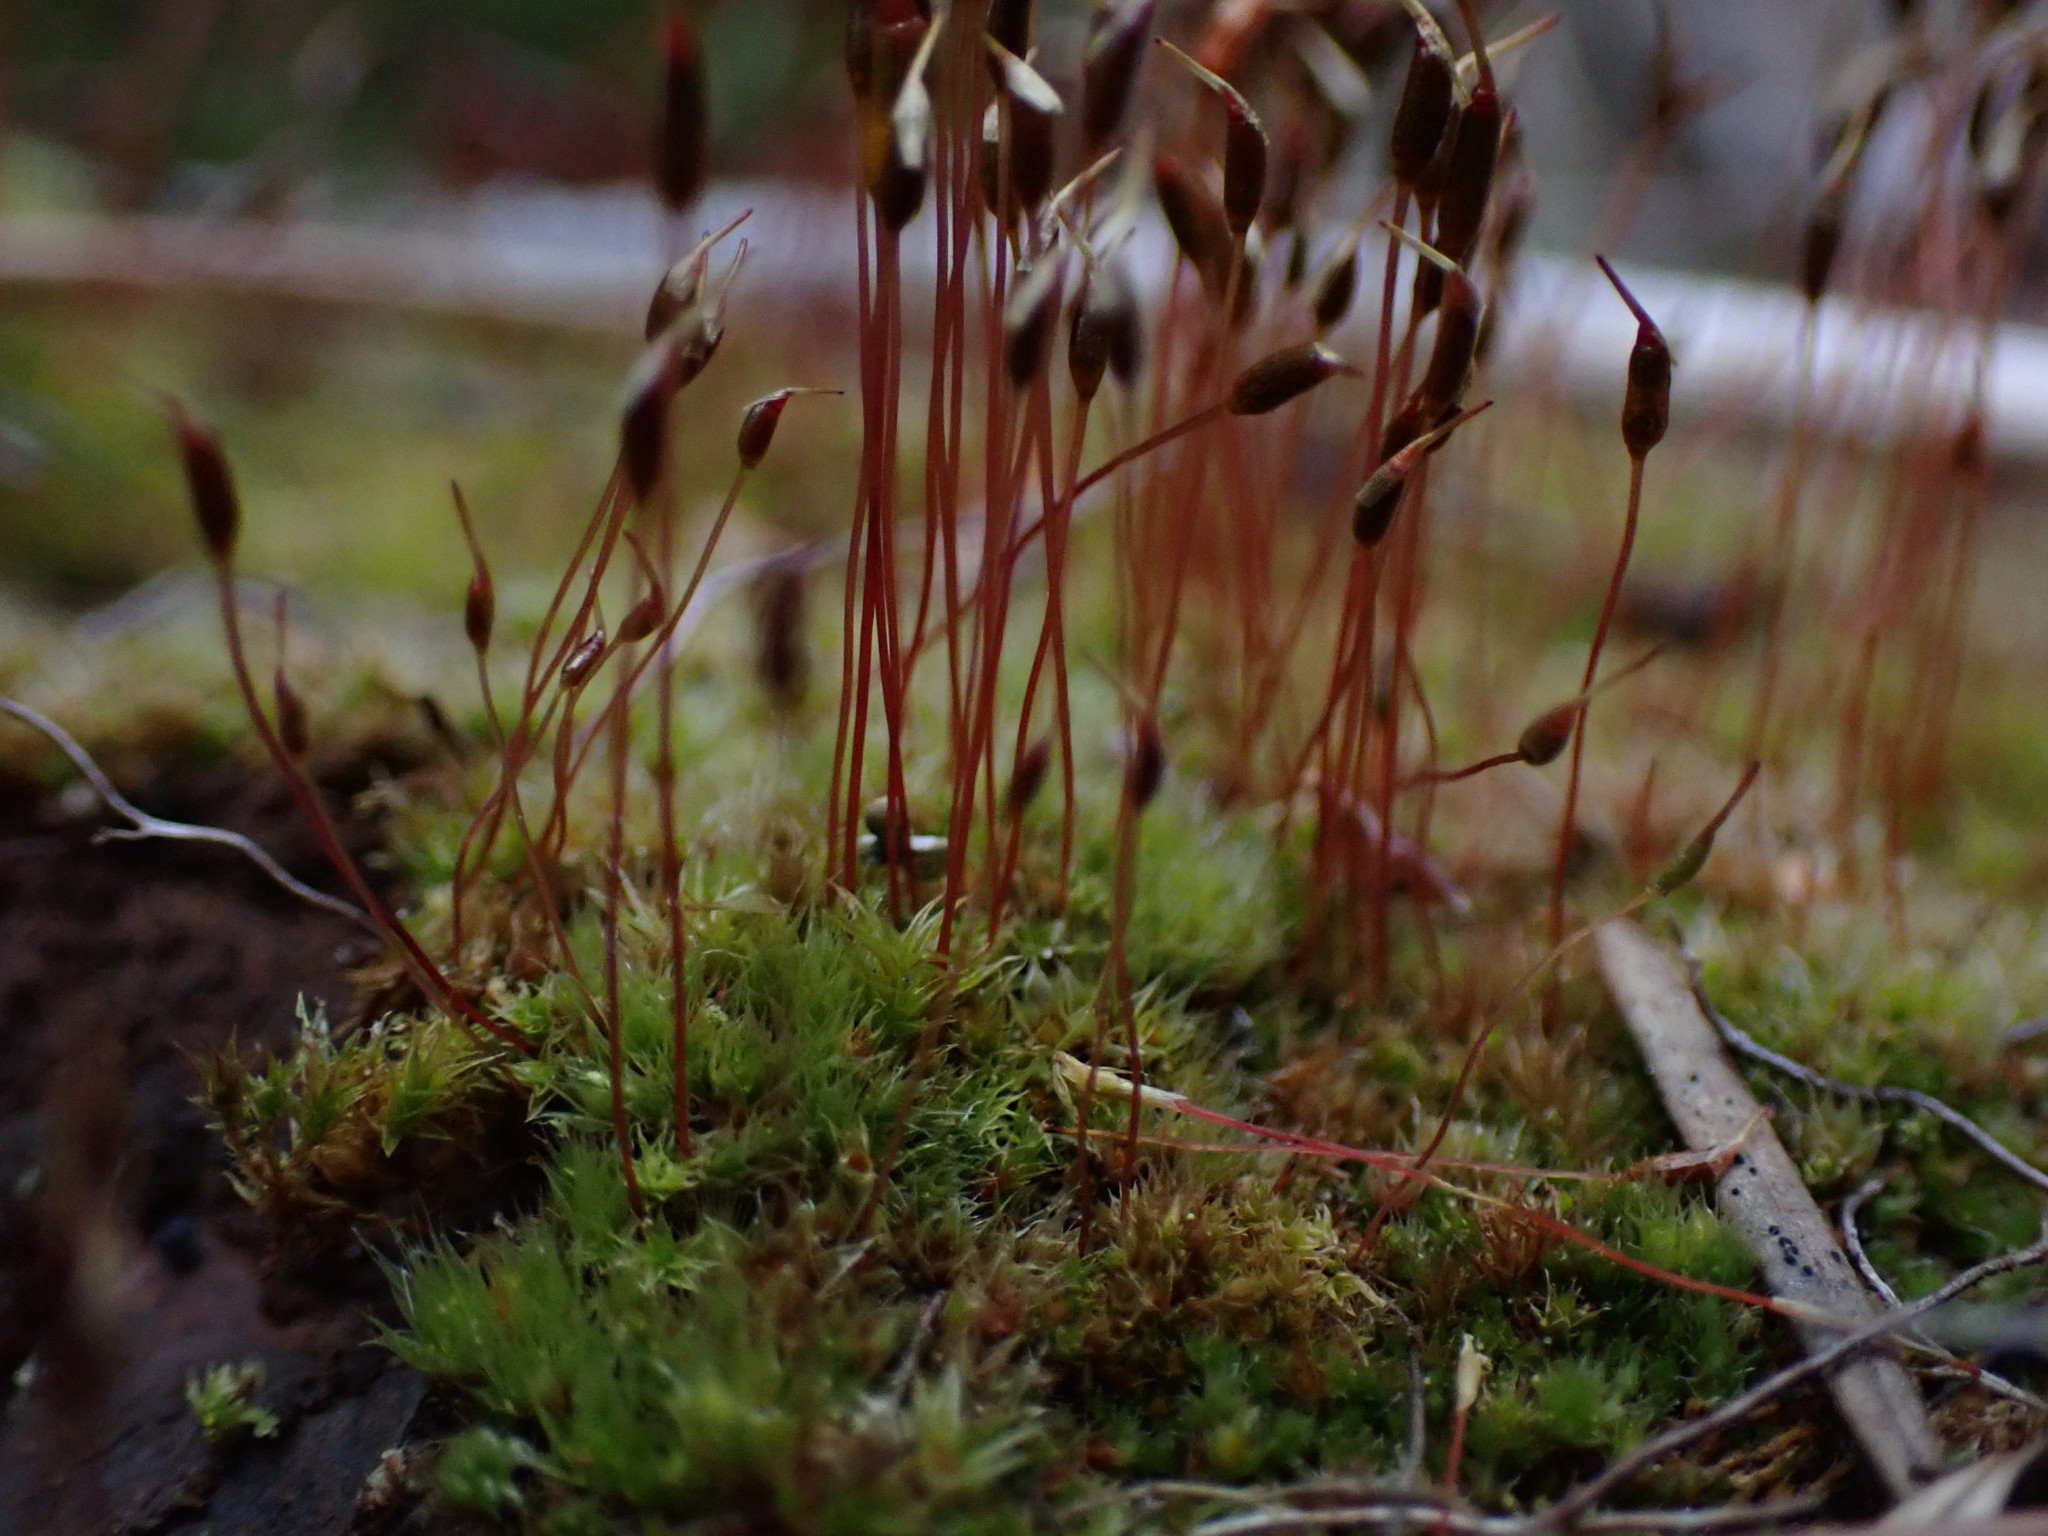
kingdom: Plantae
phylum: Bryophyta
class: Bryopsida
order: Dicranales
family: Ditrichaceae
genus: Ceratodon
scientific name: Ceratodon purpureus
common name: Redshank
